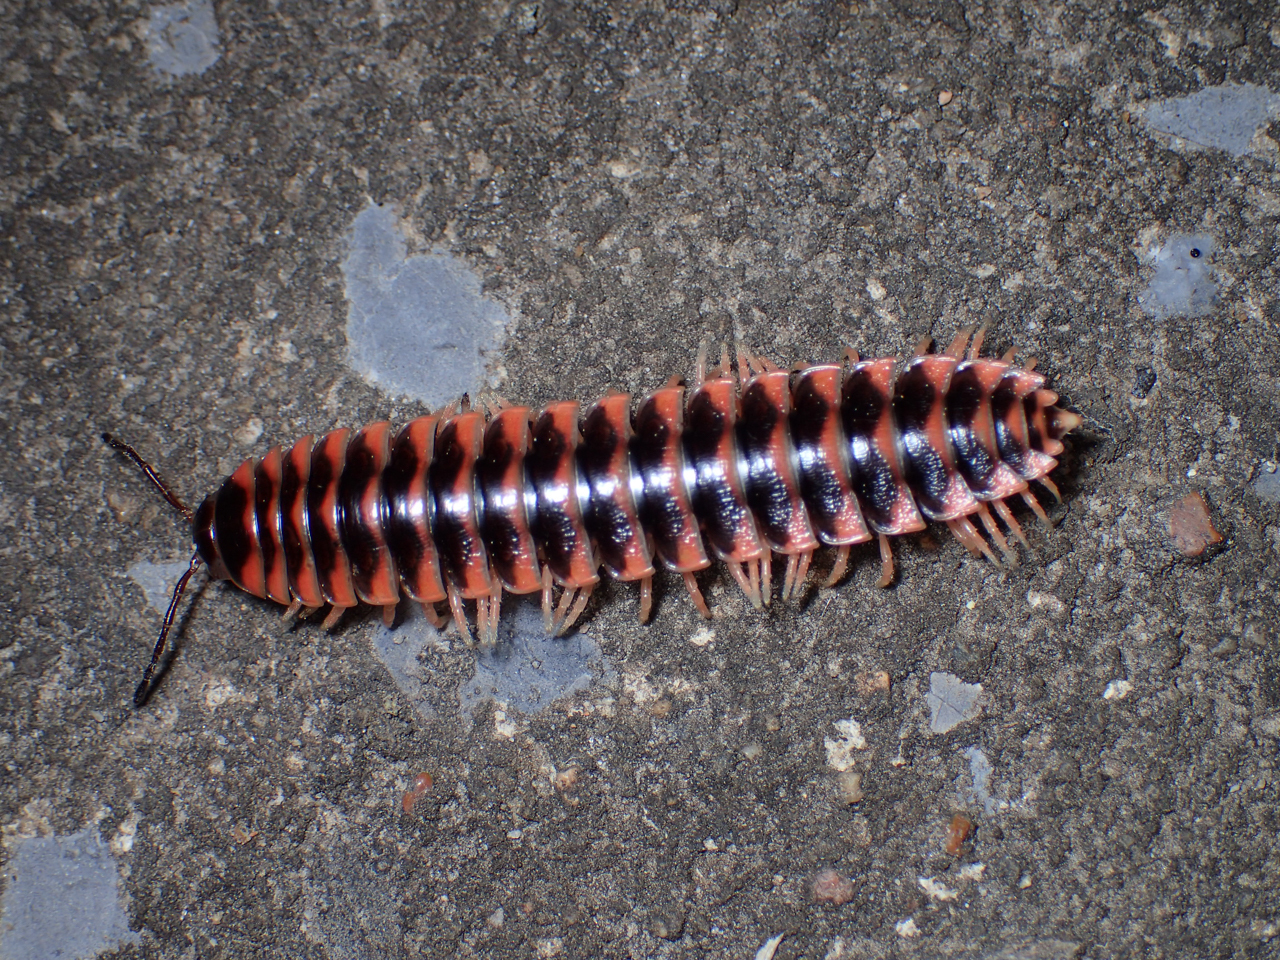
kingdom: Animalia
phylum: Arthropoda
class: Diplopoda
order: Polydesmida
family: Xystodesmidae
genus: Cherokia
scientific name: Cherokia georgiana
